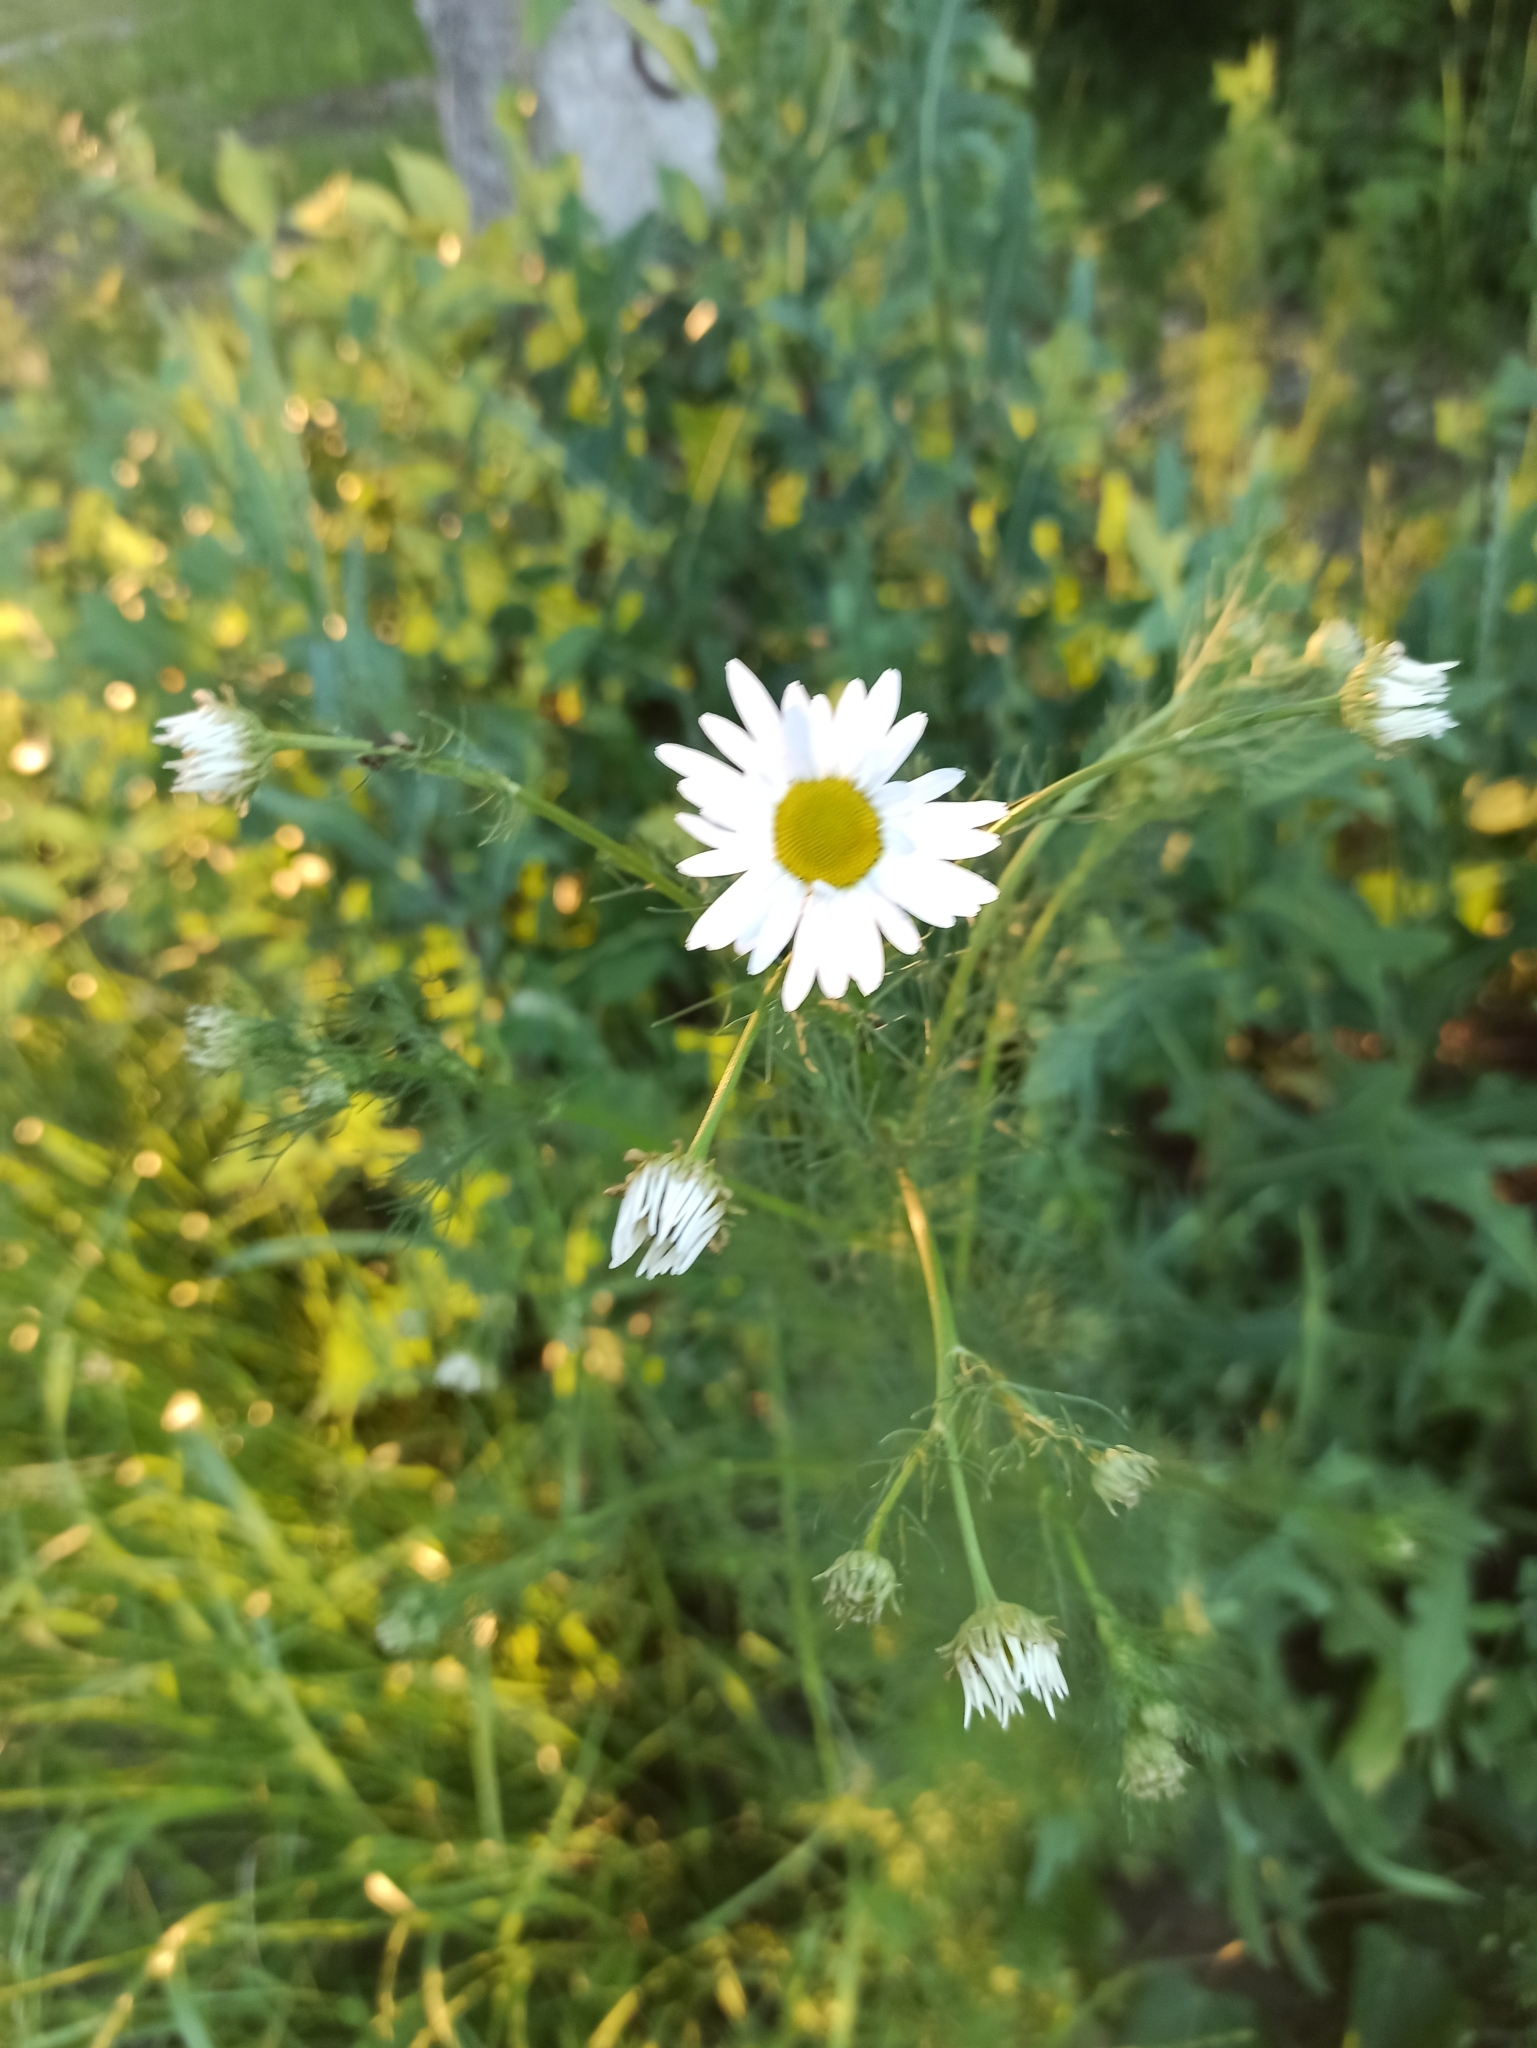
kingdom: Plantae
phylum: Tracheophyta
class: Magnoliopsida
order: Asterales
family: Asteraceae
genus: Tripleurospermum
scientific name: Tripleurospermum inodorum
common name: Scentless mayweed
